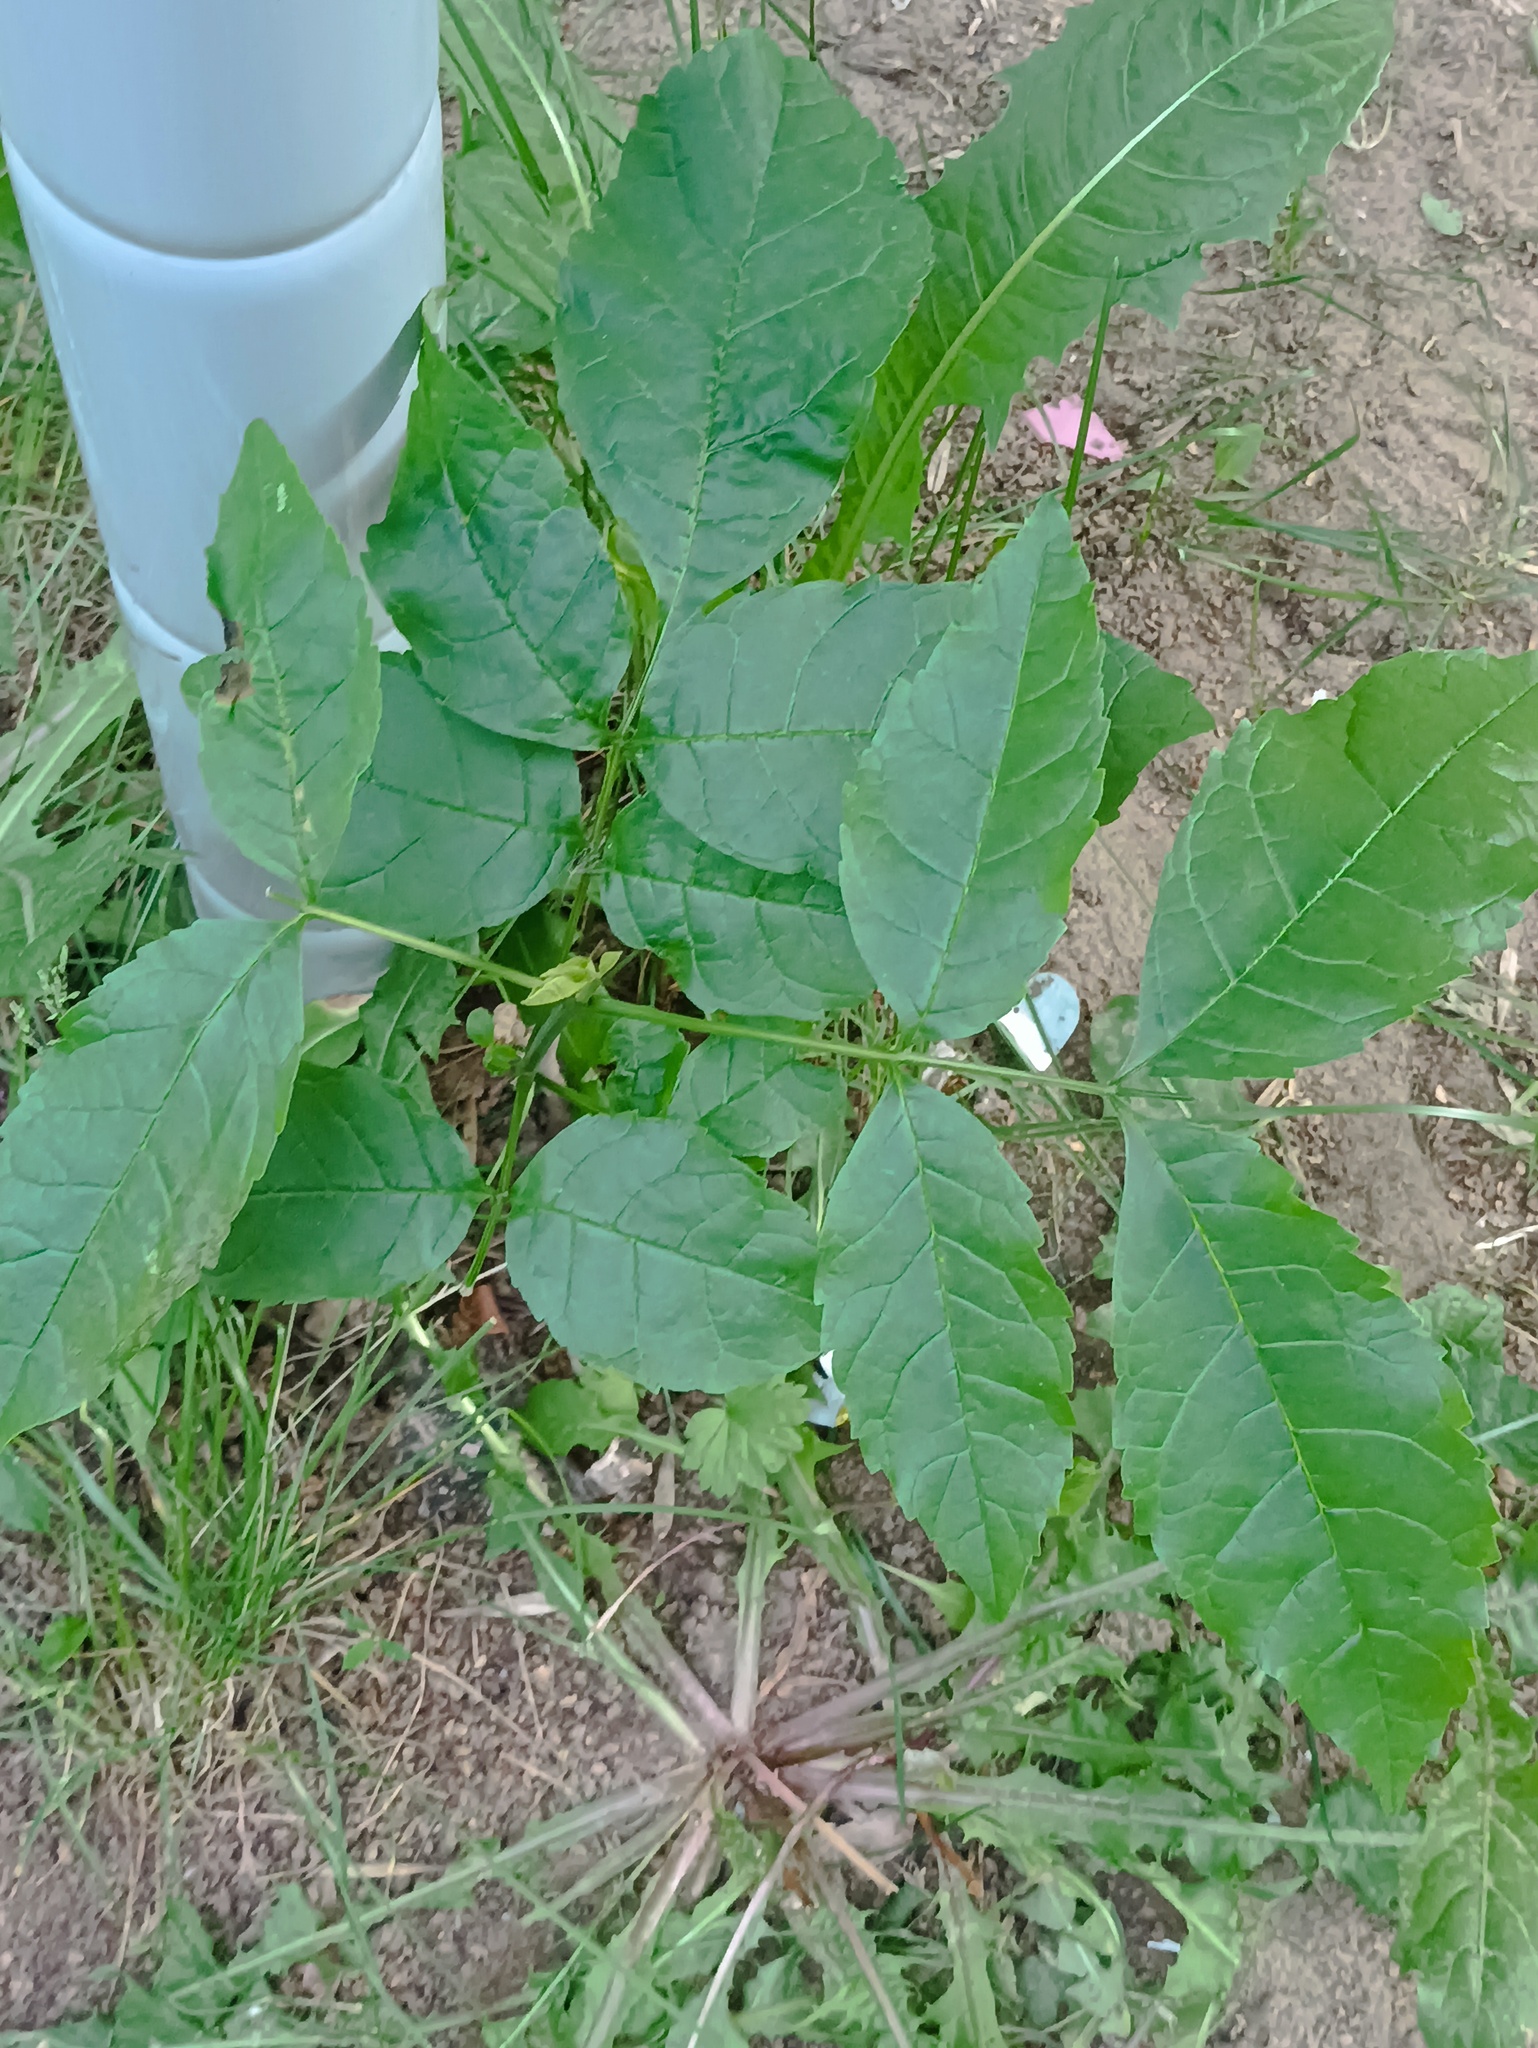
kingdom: Plantae
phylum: Tracheophyta
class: Magnoliopsida
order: Lamiales
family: Oleaceae
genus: Fraxinus
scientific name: Fraxinus pennsylvanica
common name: Green ash
